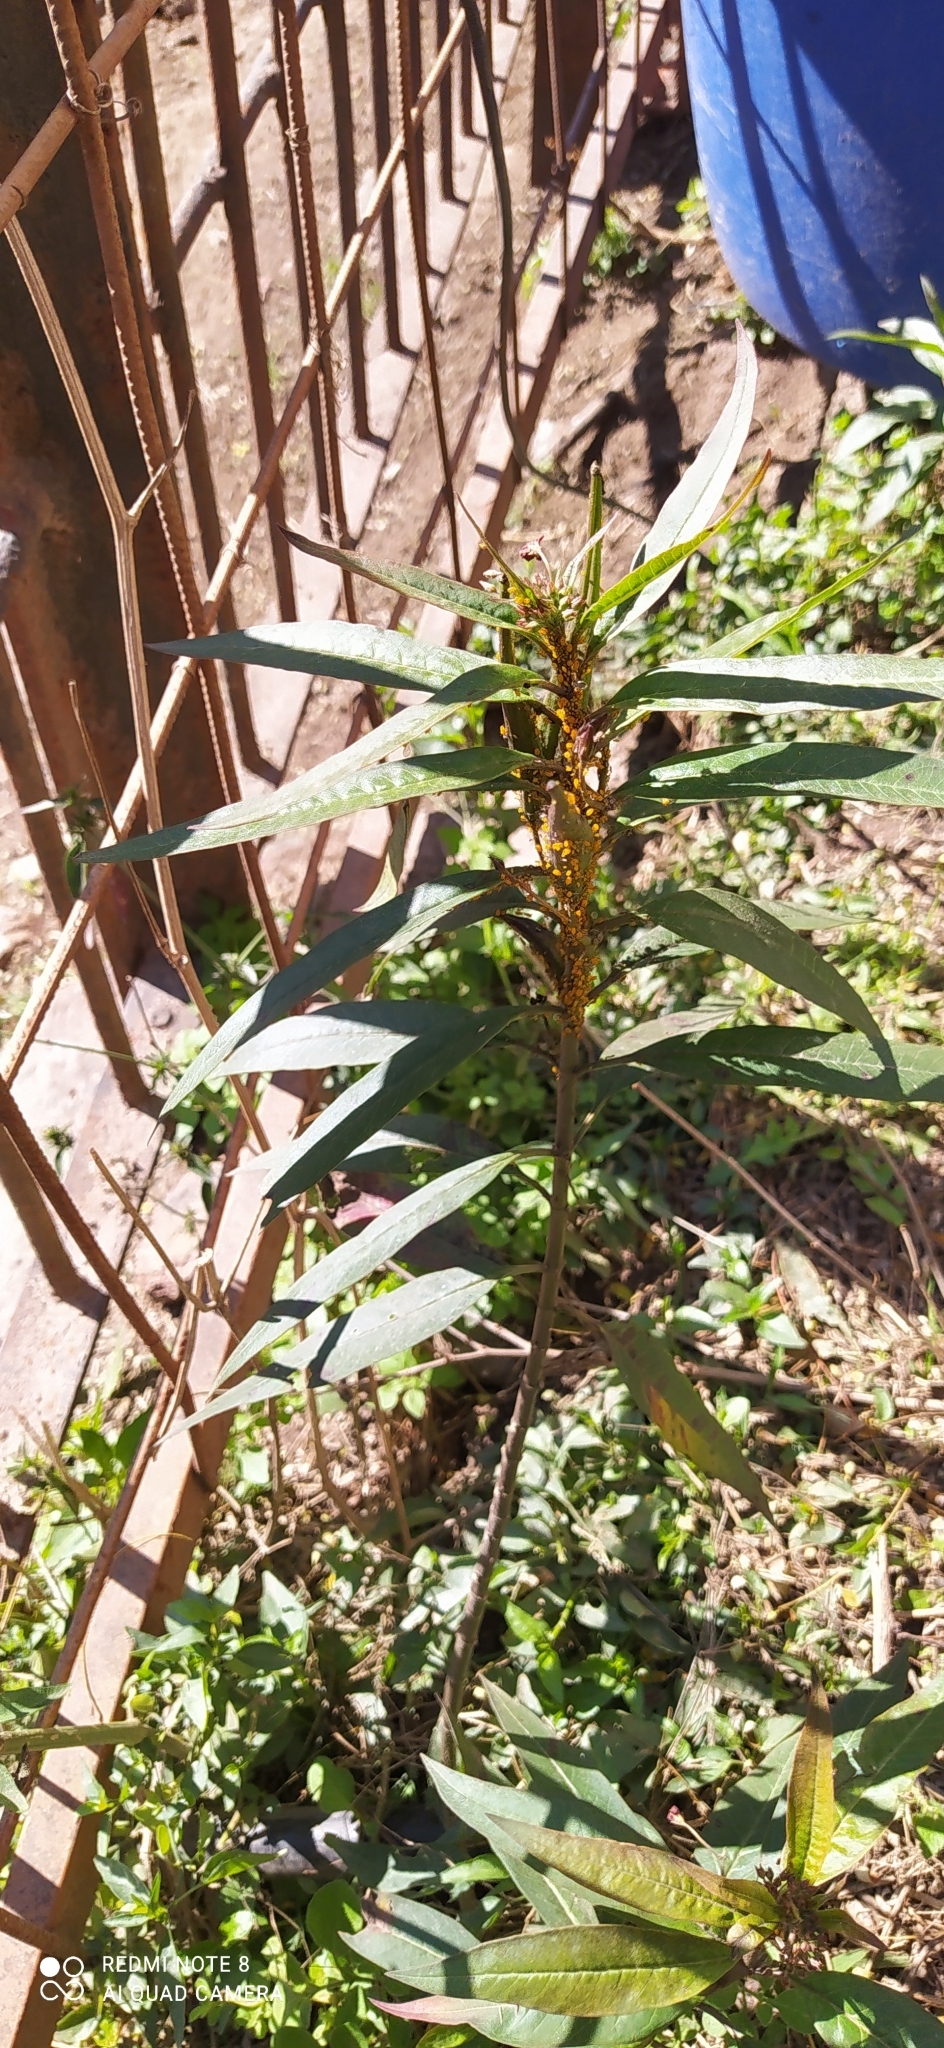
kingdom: Plantae
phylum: Tracheophyta
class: Magnoliopsida
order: Gentianales
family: Apocynaceae
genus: Asclepias
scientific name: Asclepias curassavica
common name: Bloodflower
